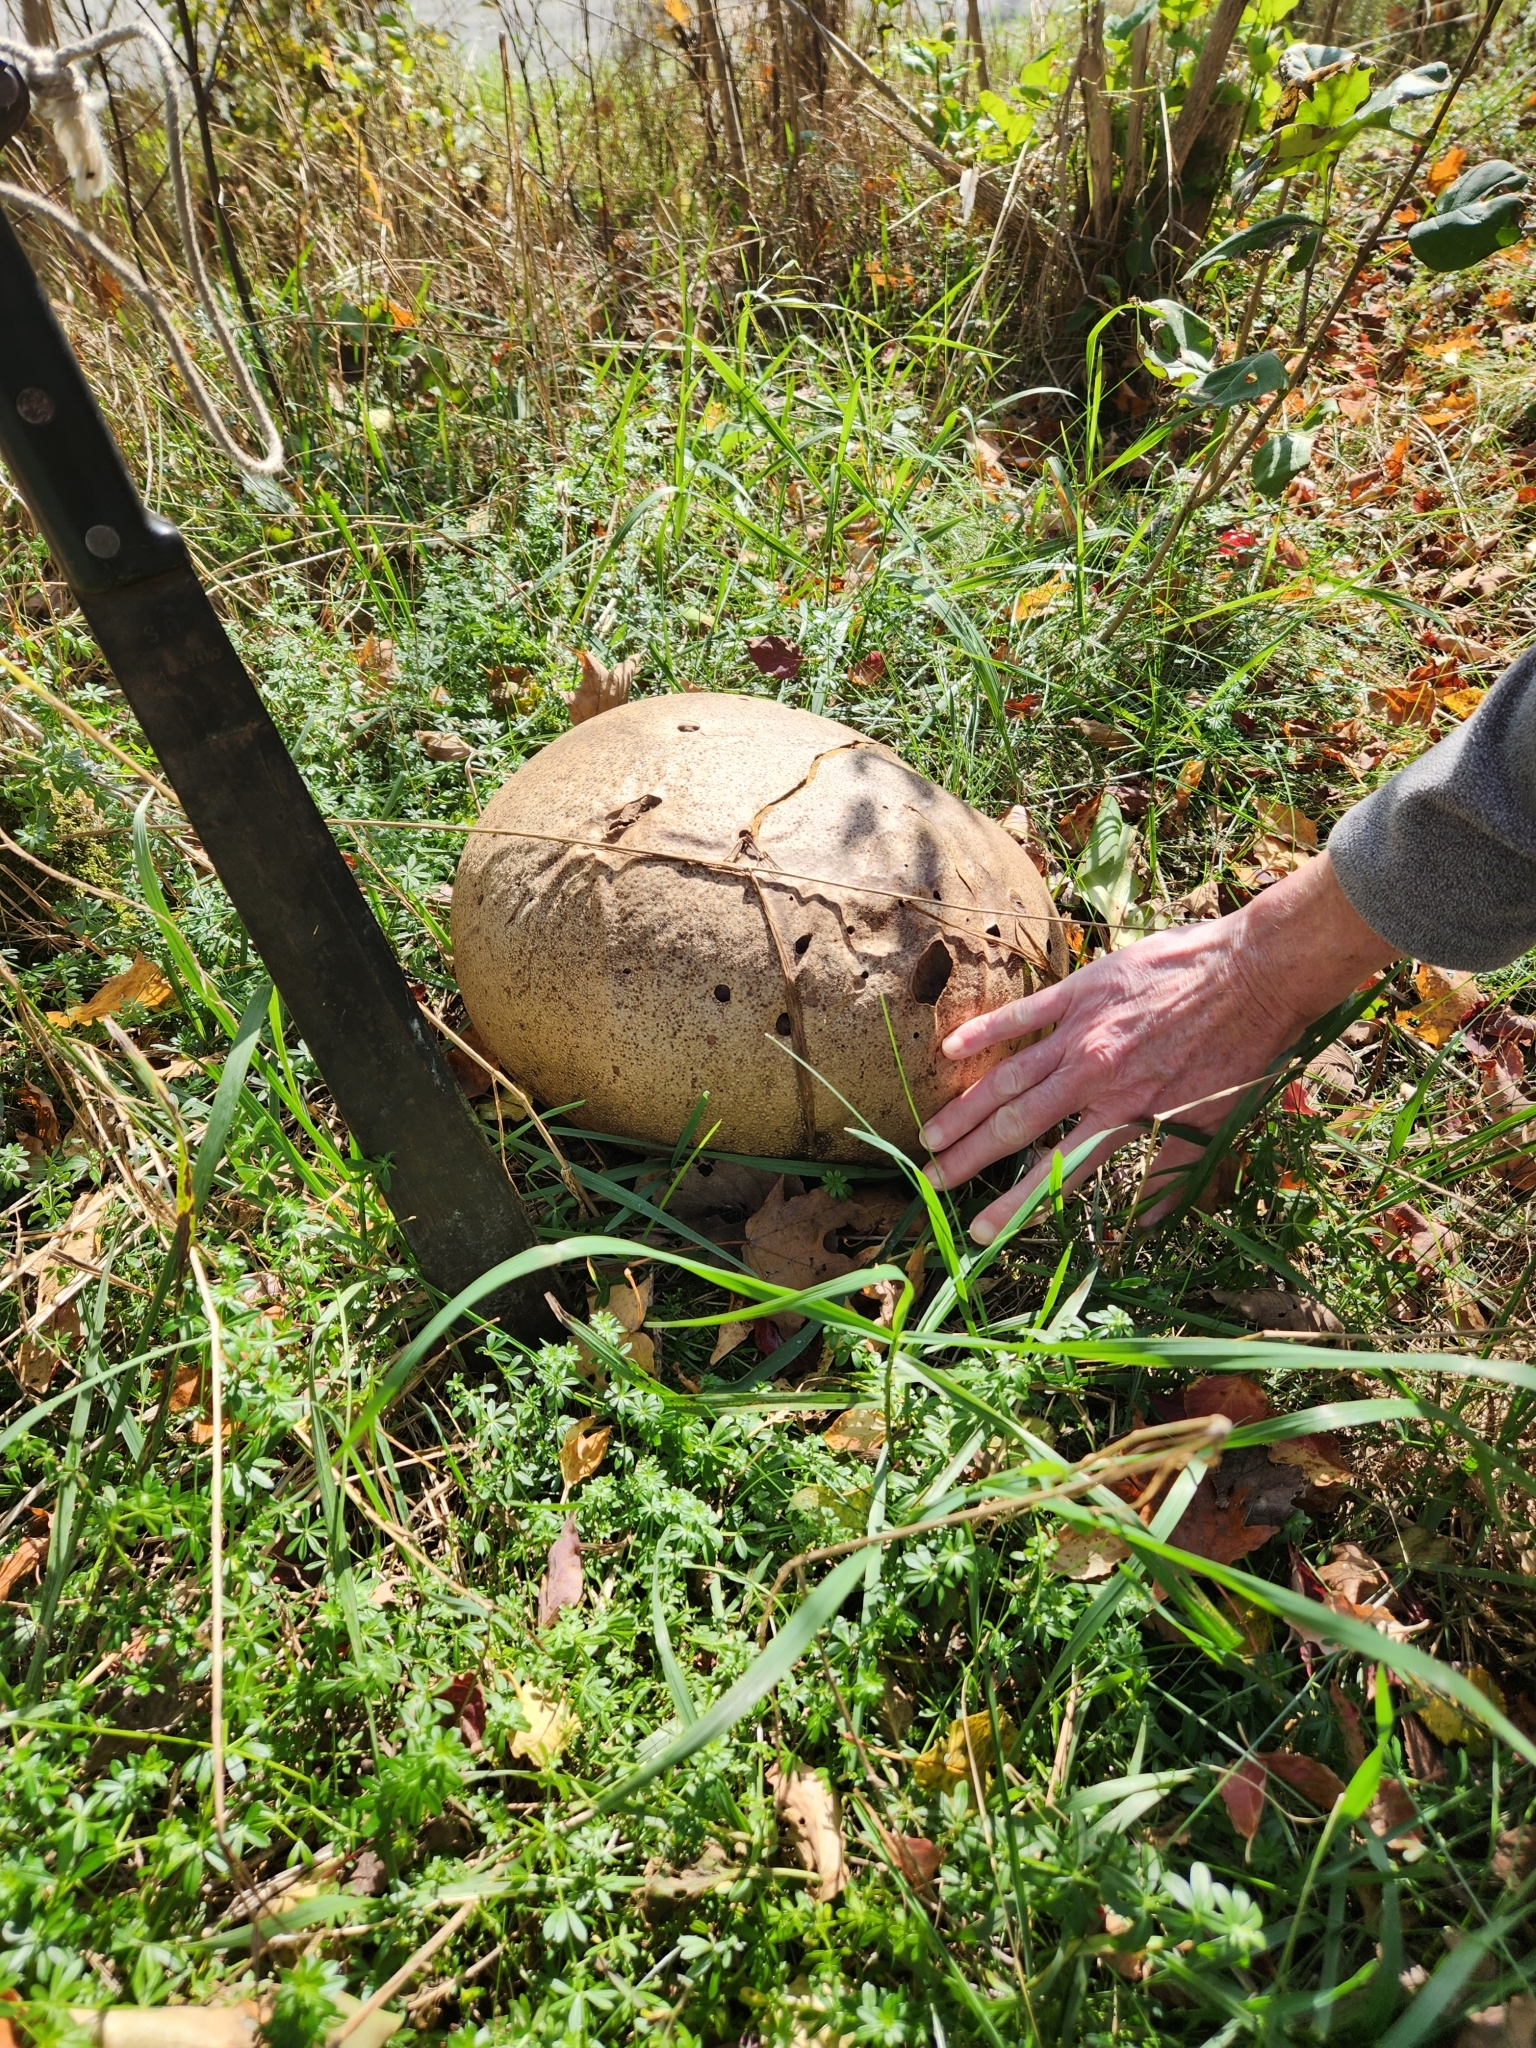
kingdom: Fungi
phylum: Basidiomycota
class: Agaricomycetes
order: Agaricales
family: Lycoperdaceae
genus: Calvatia
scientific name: Calvatia gigantea
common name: Giant puffball
